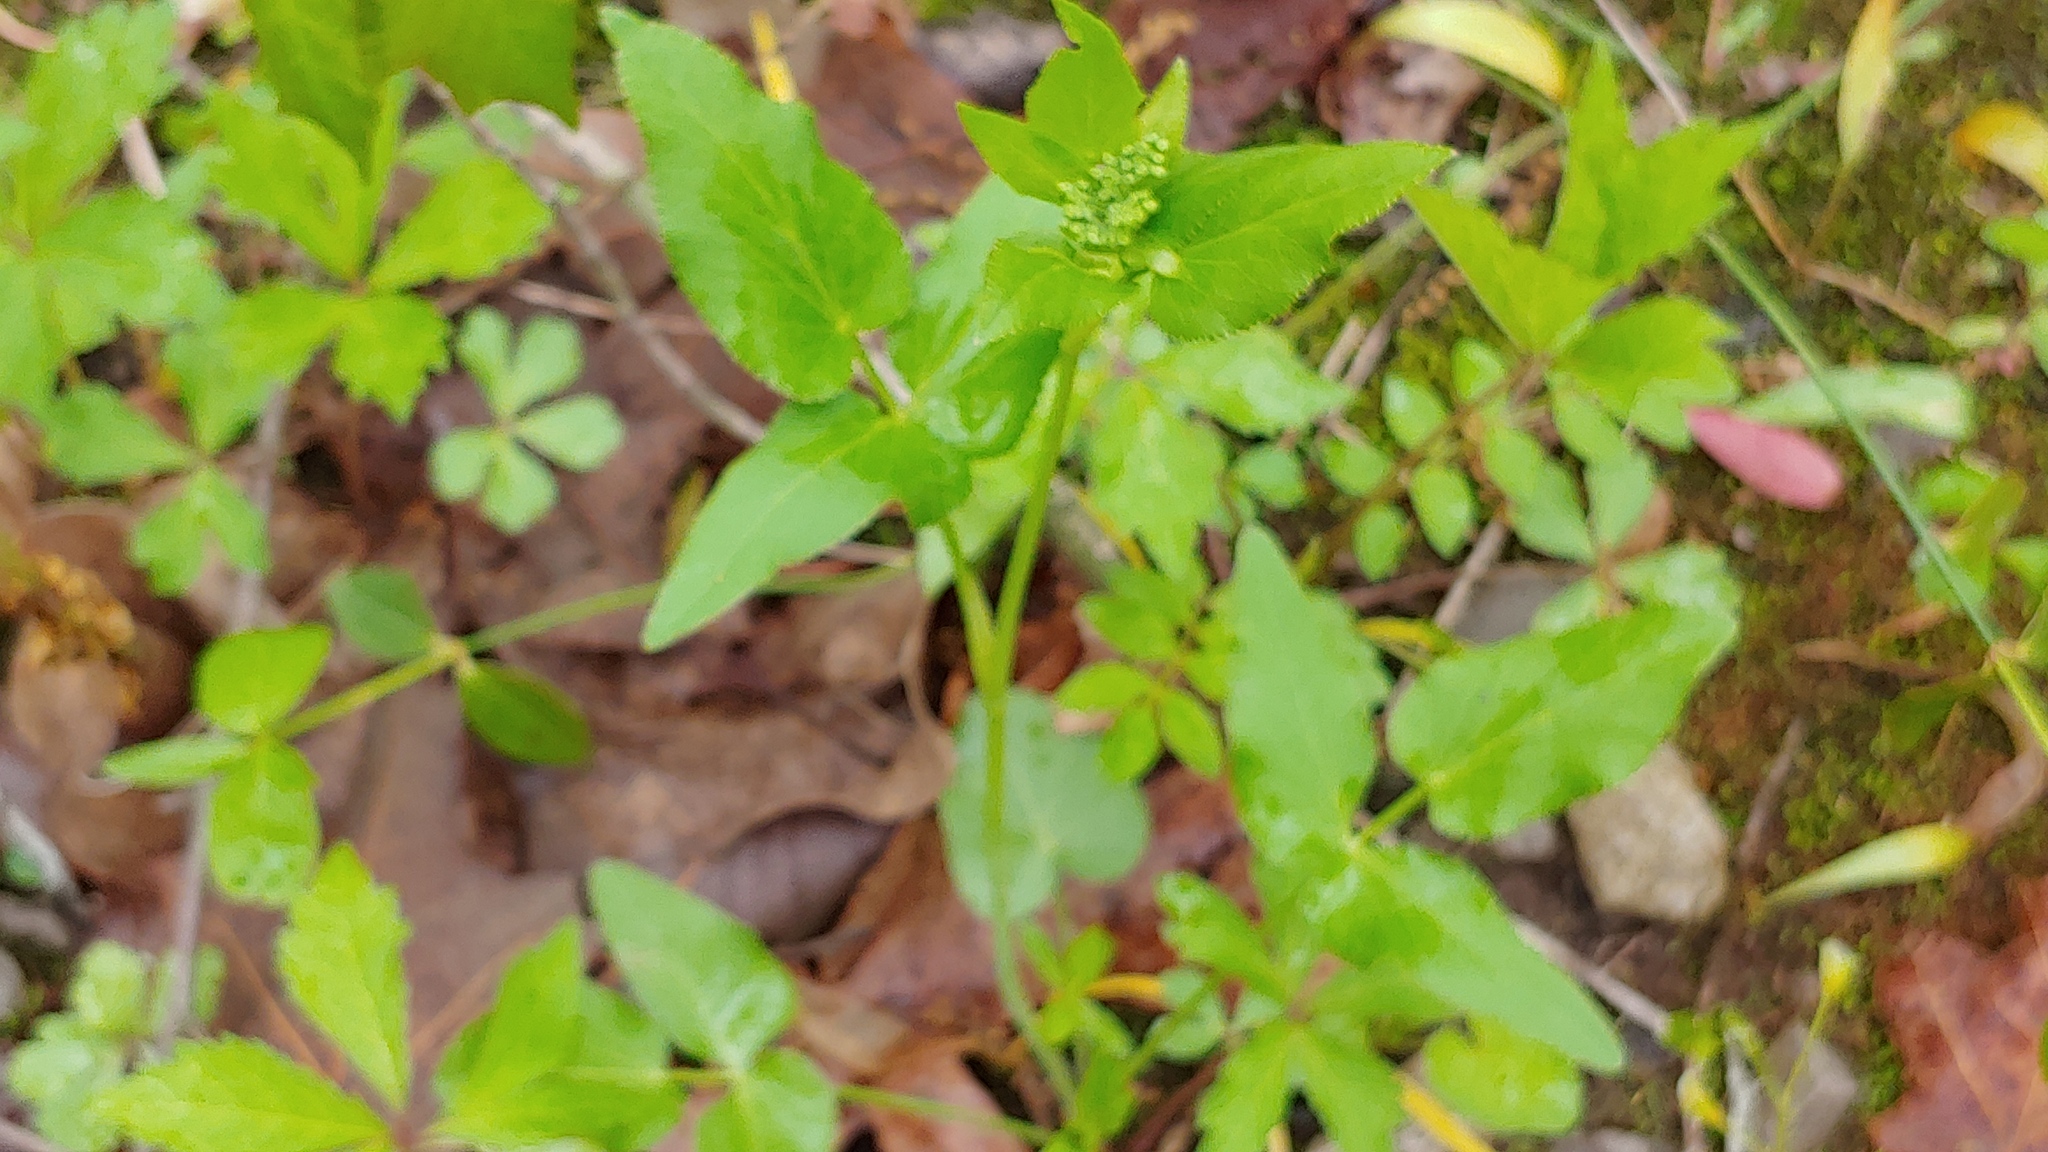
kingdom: Plantae
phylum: Tracheophyta
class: Magnoliopsida
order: Apiales
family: Apiaceae
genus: Thaspium
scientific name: Thaspium trifoliatum
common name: Purple meadow-parsnip
